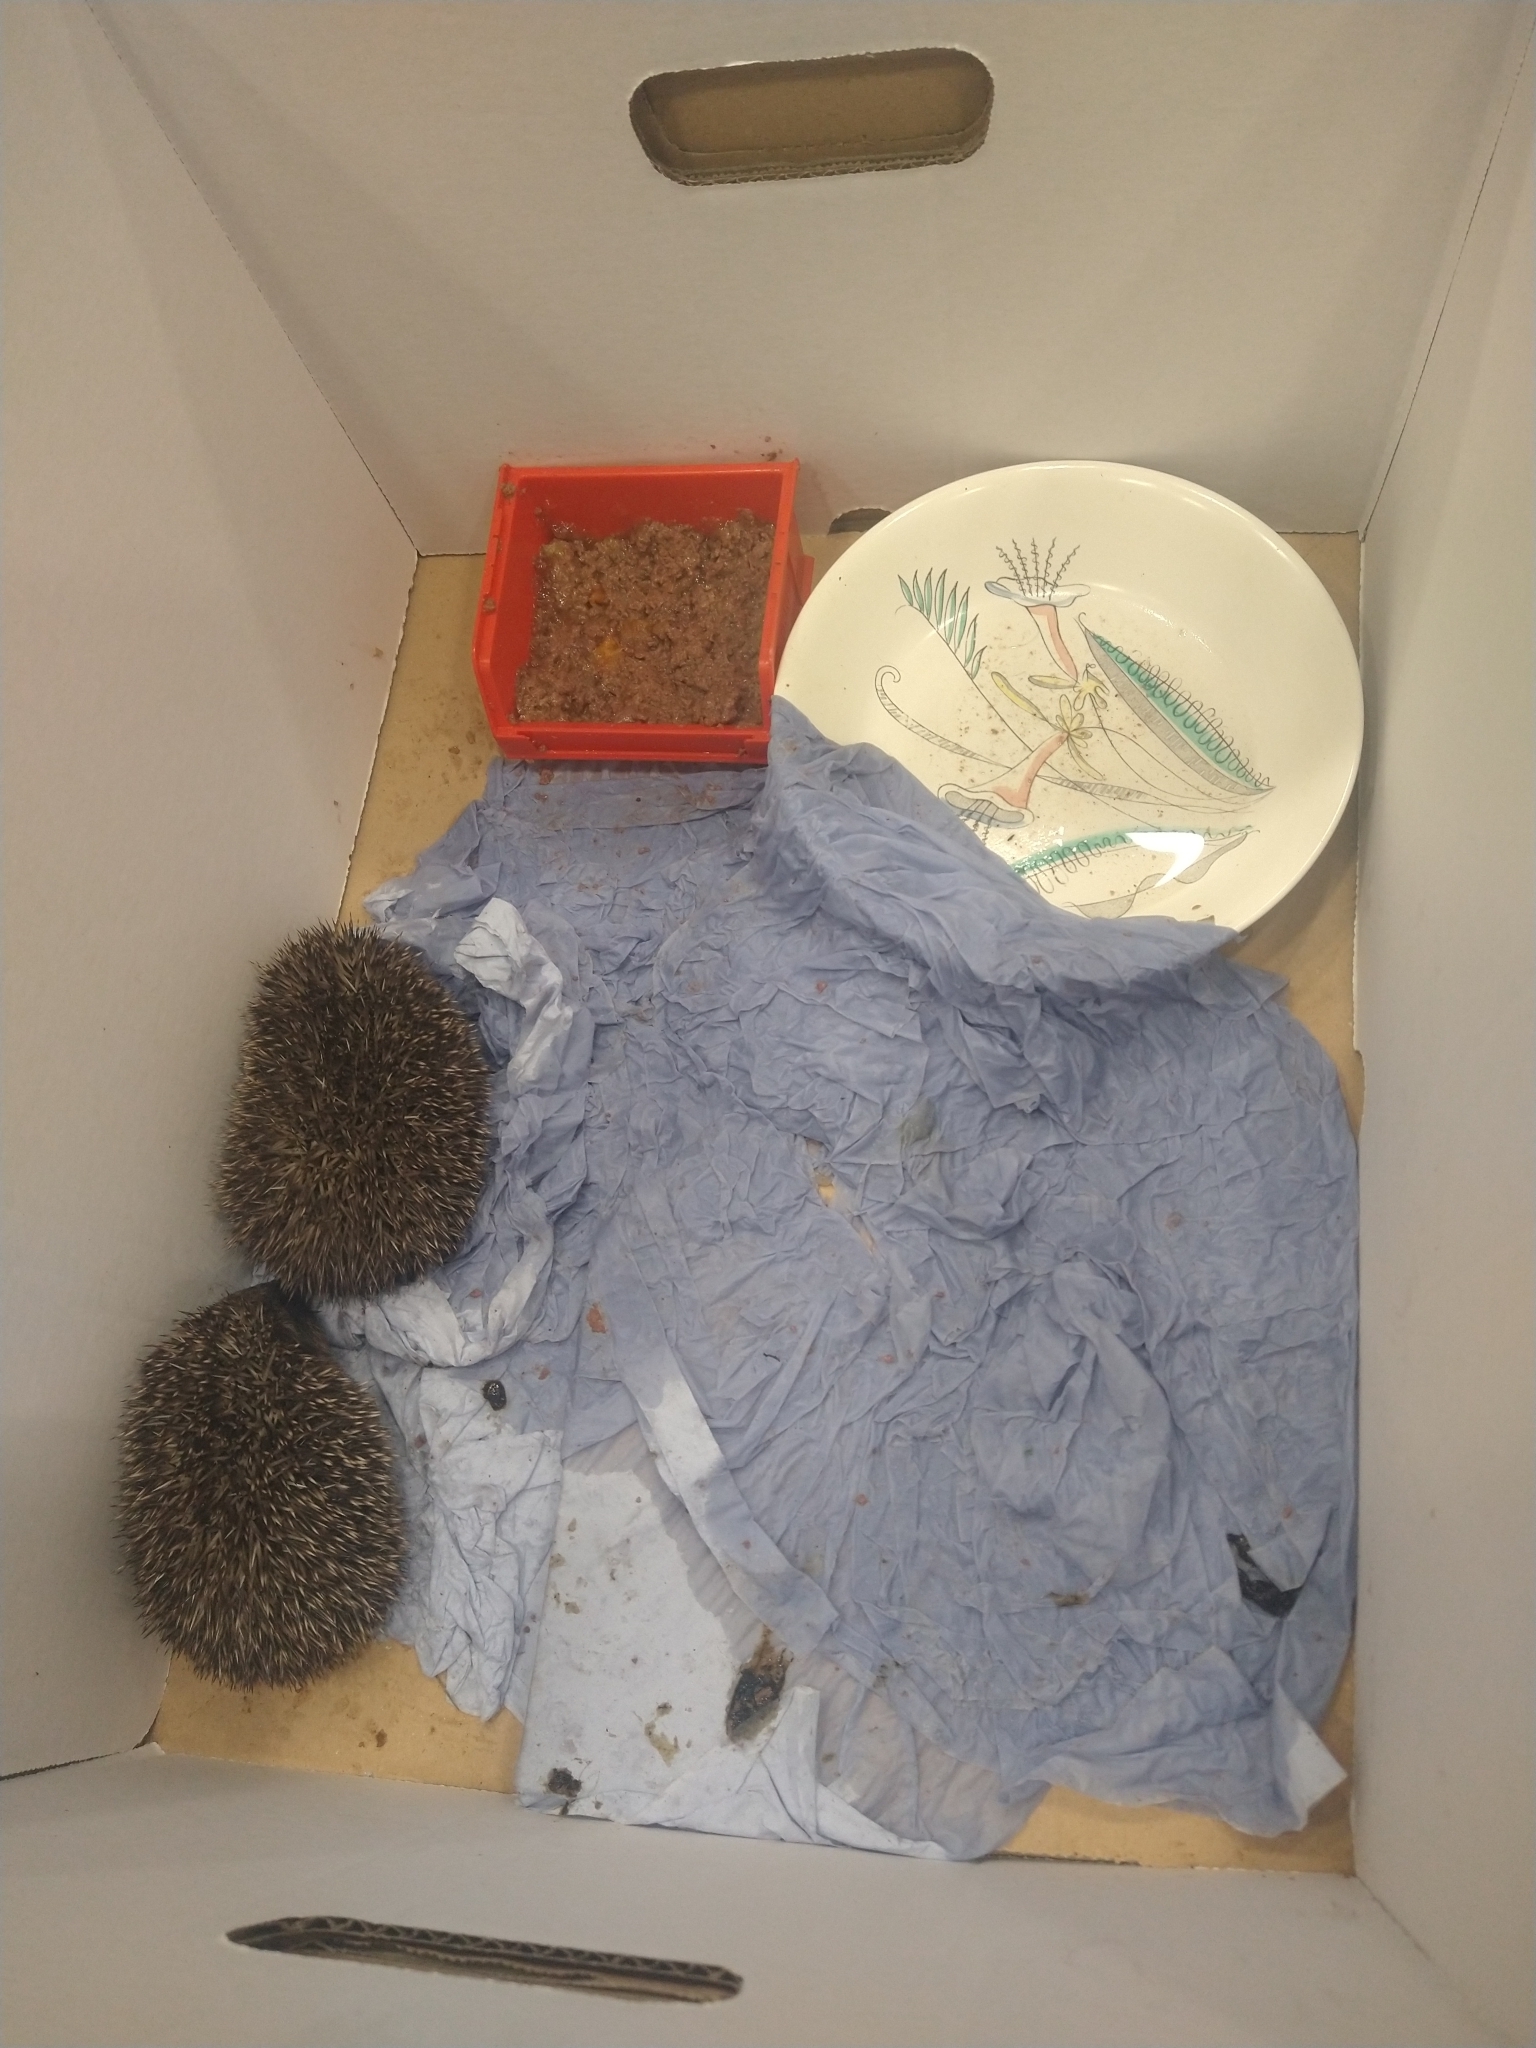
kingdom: Animalia
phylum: Chordata
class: Mammalia
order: Erinaceomorpha
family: Erinaceidae
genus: Erinaceus
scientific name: Erinaceus europaeus
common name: West european hedgehog
